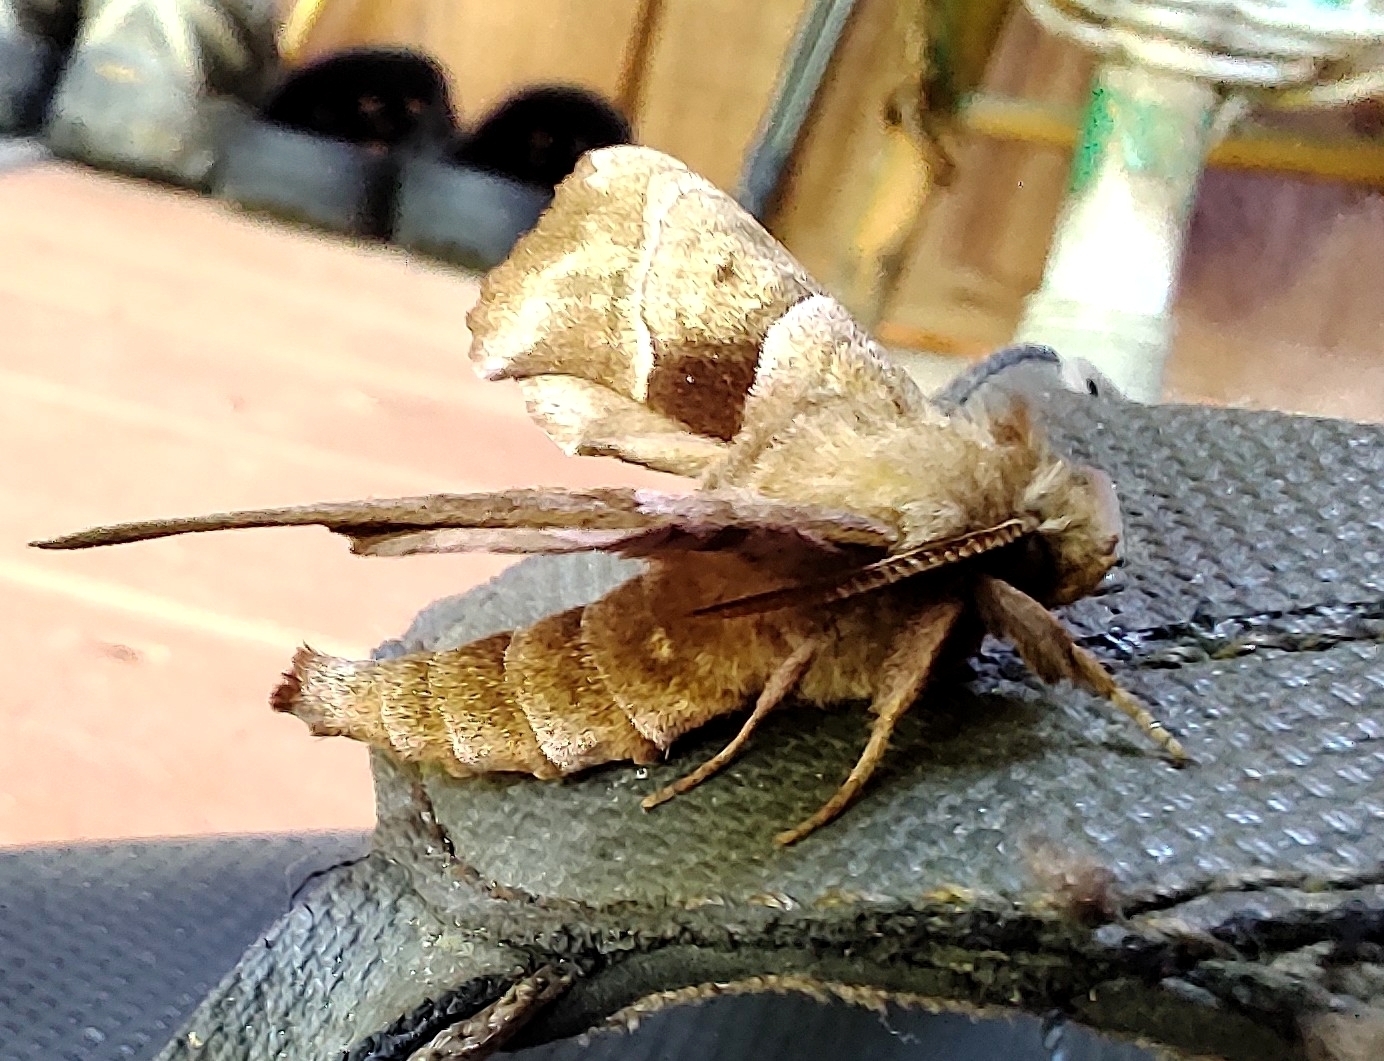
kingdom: Animalia
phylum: Arthropoda
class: Insecta
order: Lepidoptera
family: Sphingidae
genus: Amorpha
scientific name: Amorpha juglandis
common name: Walnut sphinx
